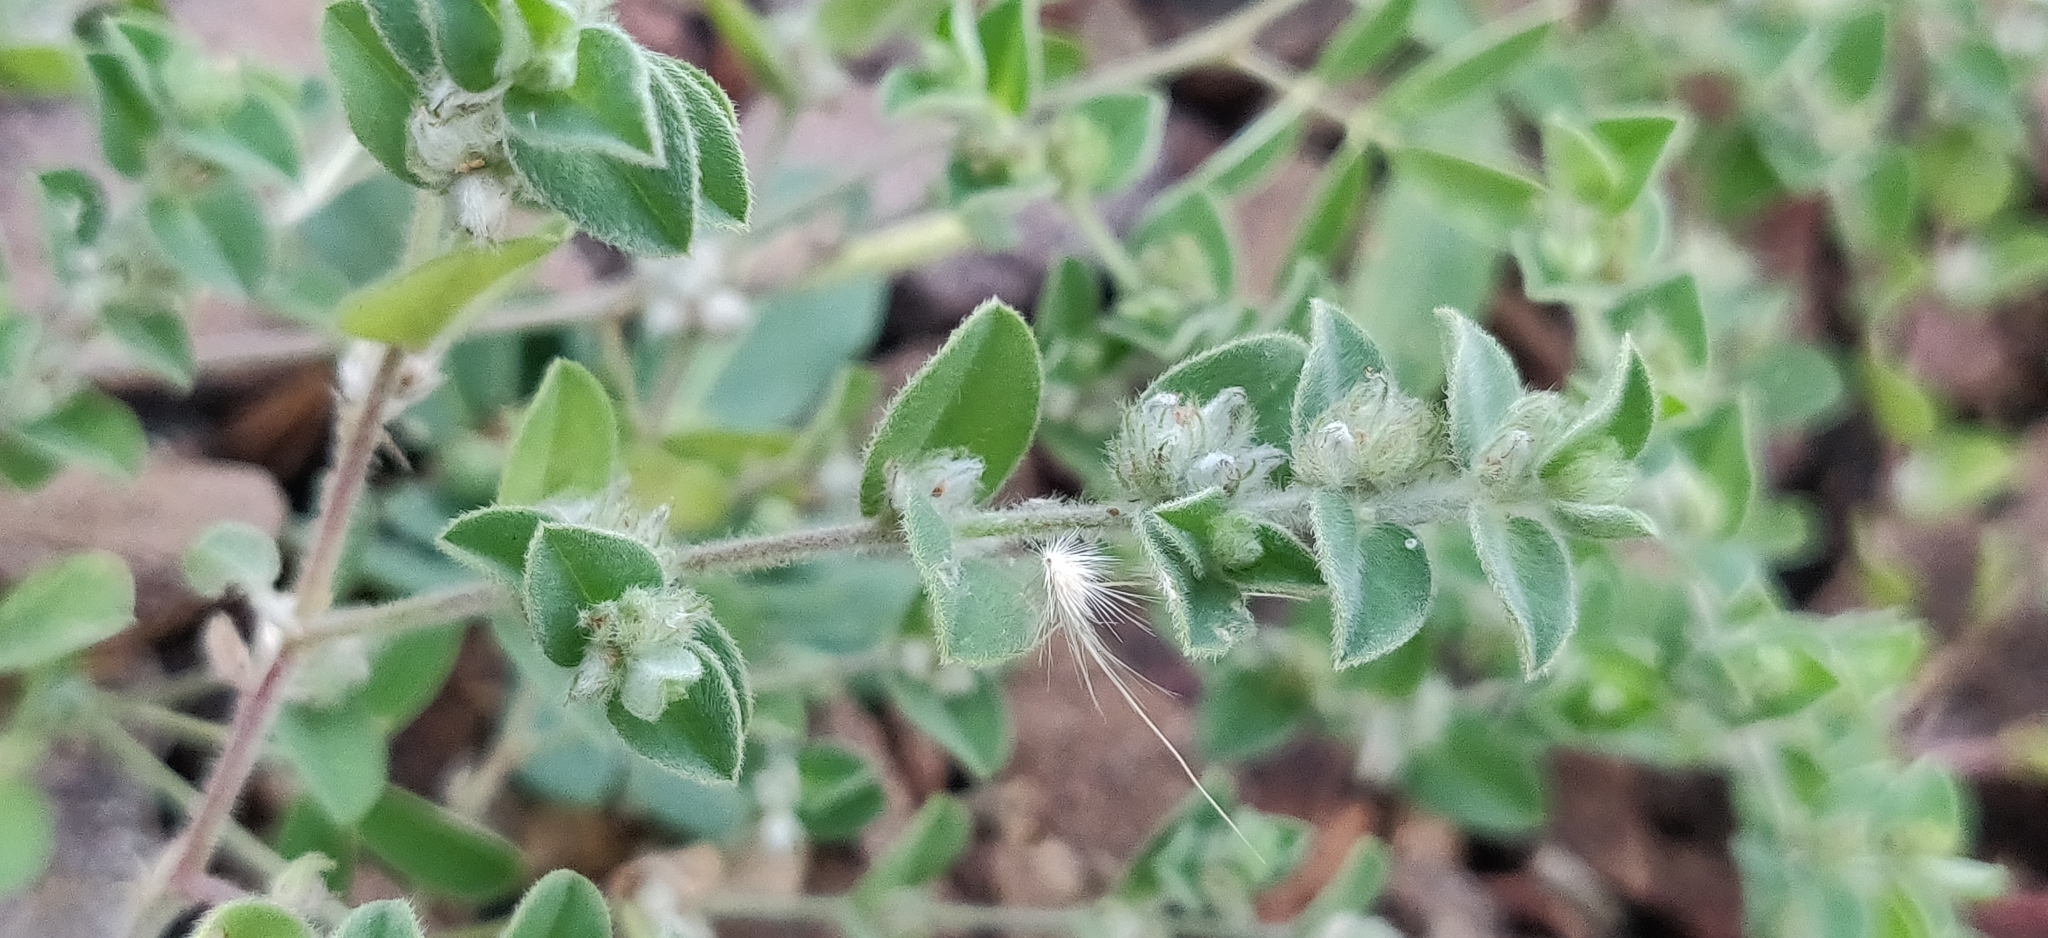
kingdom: Plantae
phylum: Tracheophyta
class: Magnoliopsida
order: Fabales
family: Fabaceae
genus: Indigofera
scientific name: Indigofera cordifolia
